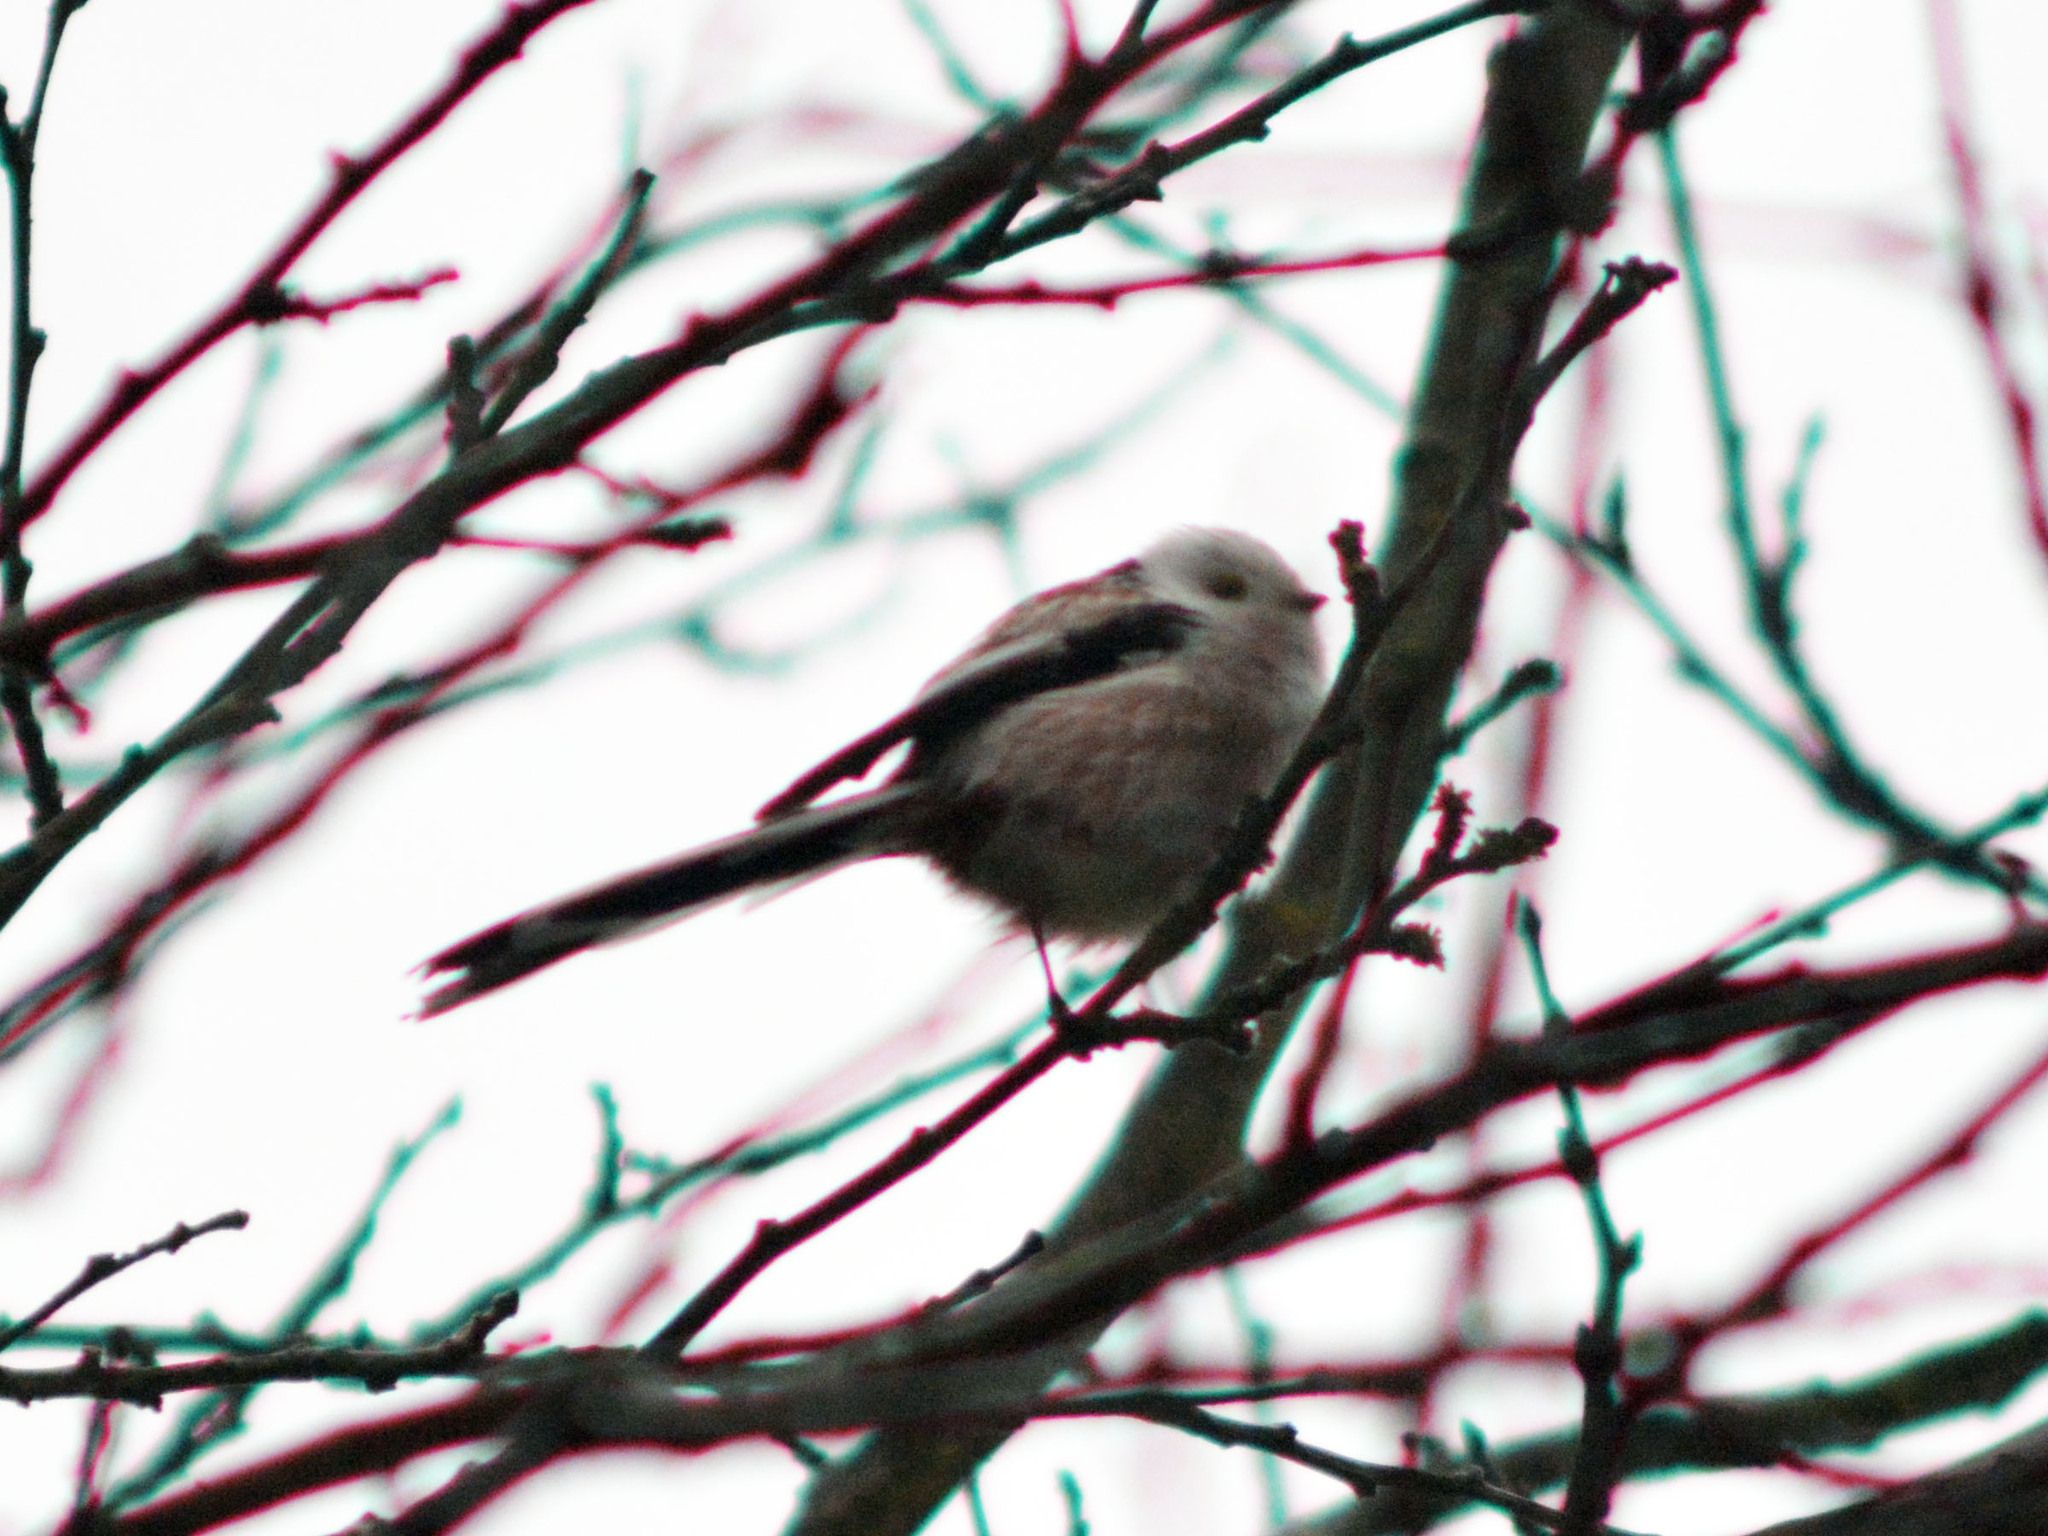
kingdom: Animalia
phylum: Chordata
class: Aves
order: Passeriformes
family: Aegithalidae
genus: Aegithalos
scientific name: Aegithalos caudatus
